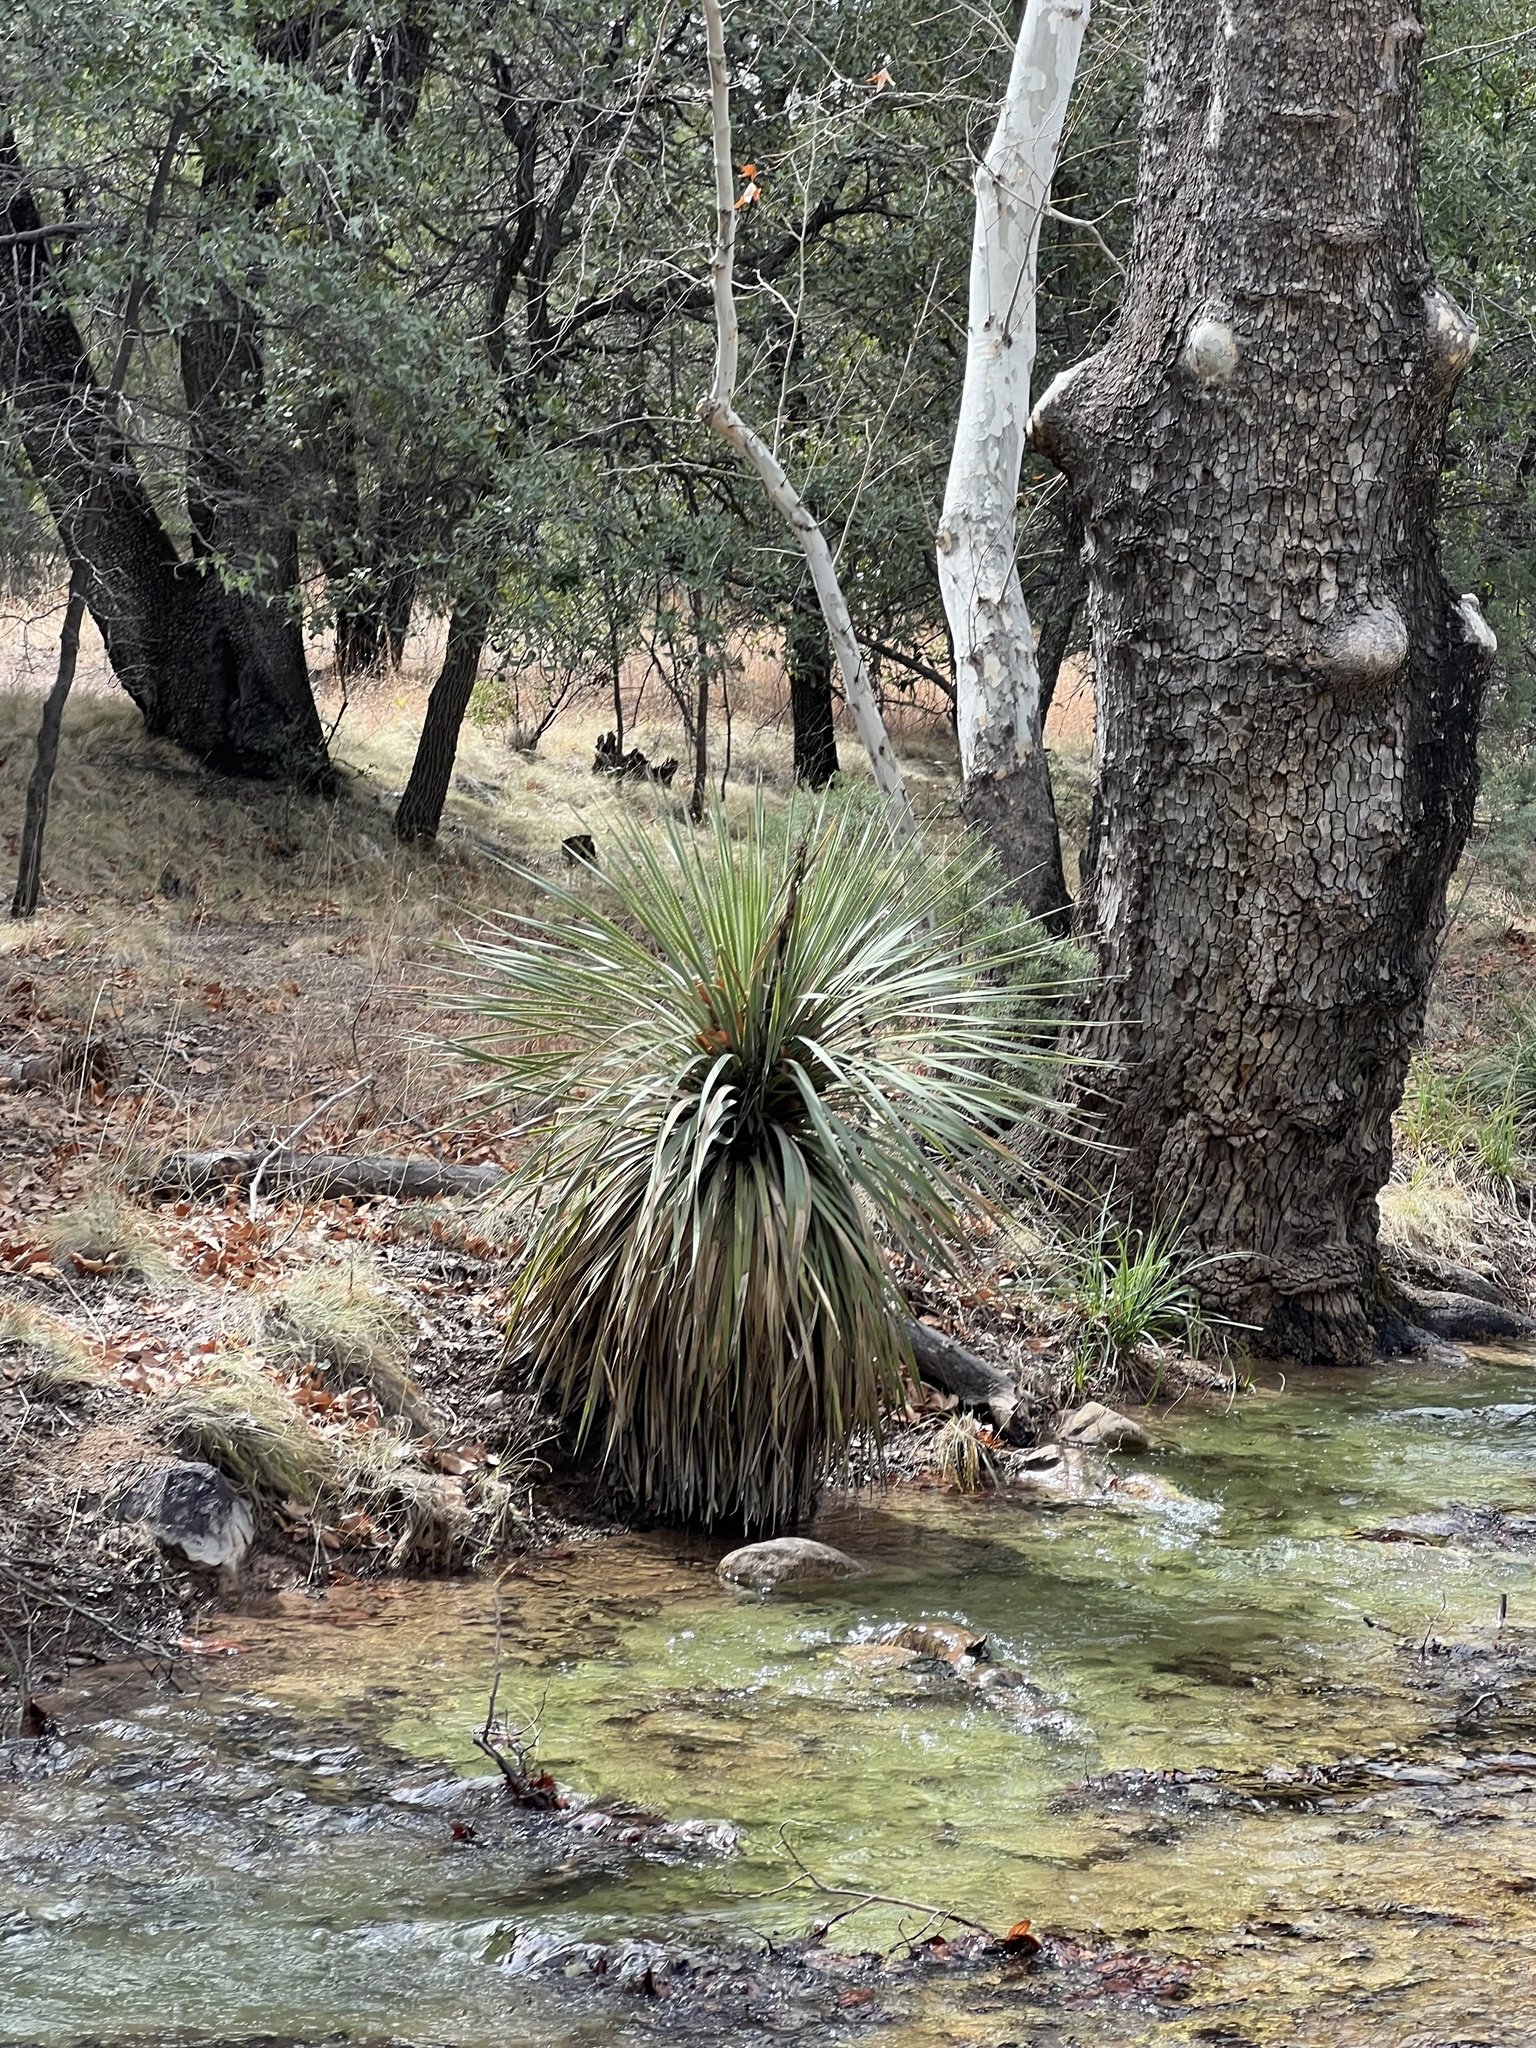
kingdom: Plantae
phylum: Tracheophyta
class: Liliopsida
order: Asparagales
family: Asparagaceae
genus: Dasylirion
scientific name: Dasylirion wheeleri
